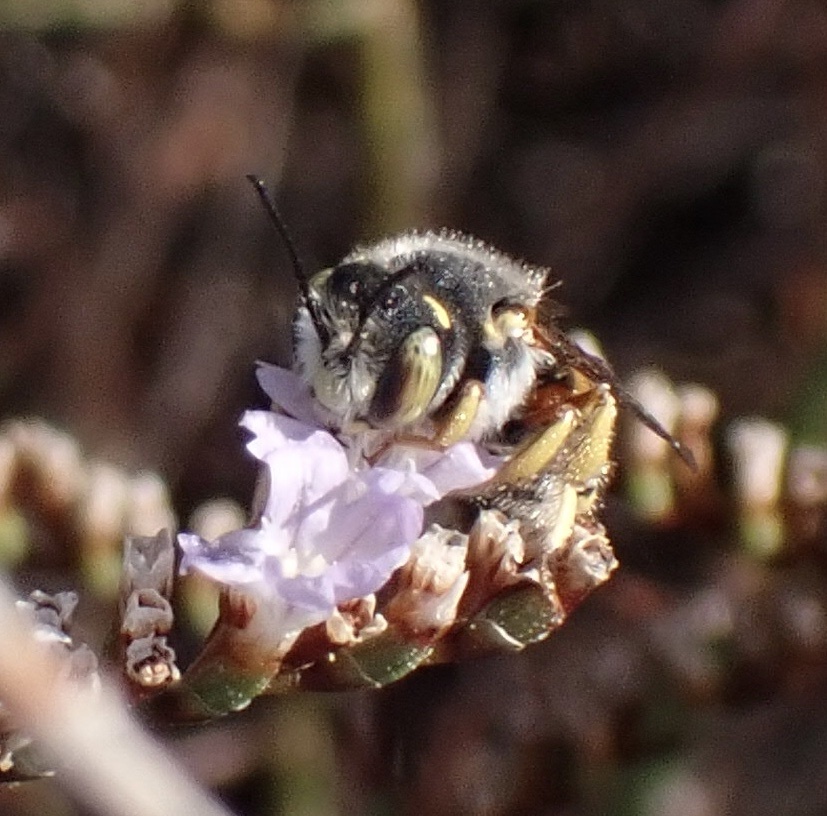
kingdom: Animalia
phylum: Arthropoda
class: Insecta
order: Hymenoptera
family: Megachilidae
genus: Anthidium
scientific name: Anthidium oblongatum
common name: Oblong wool carder bee
